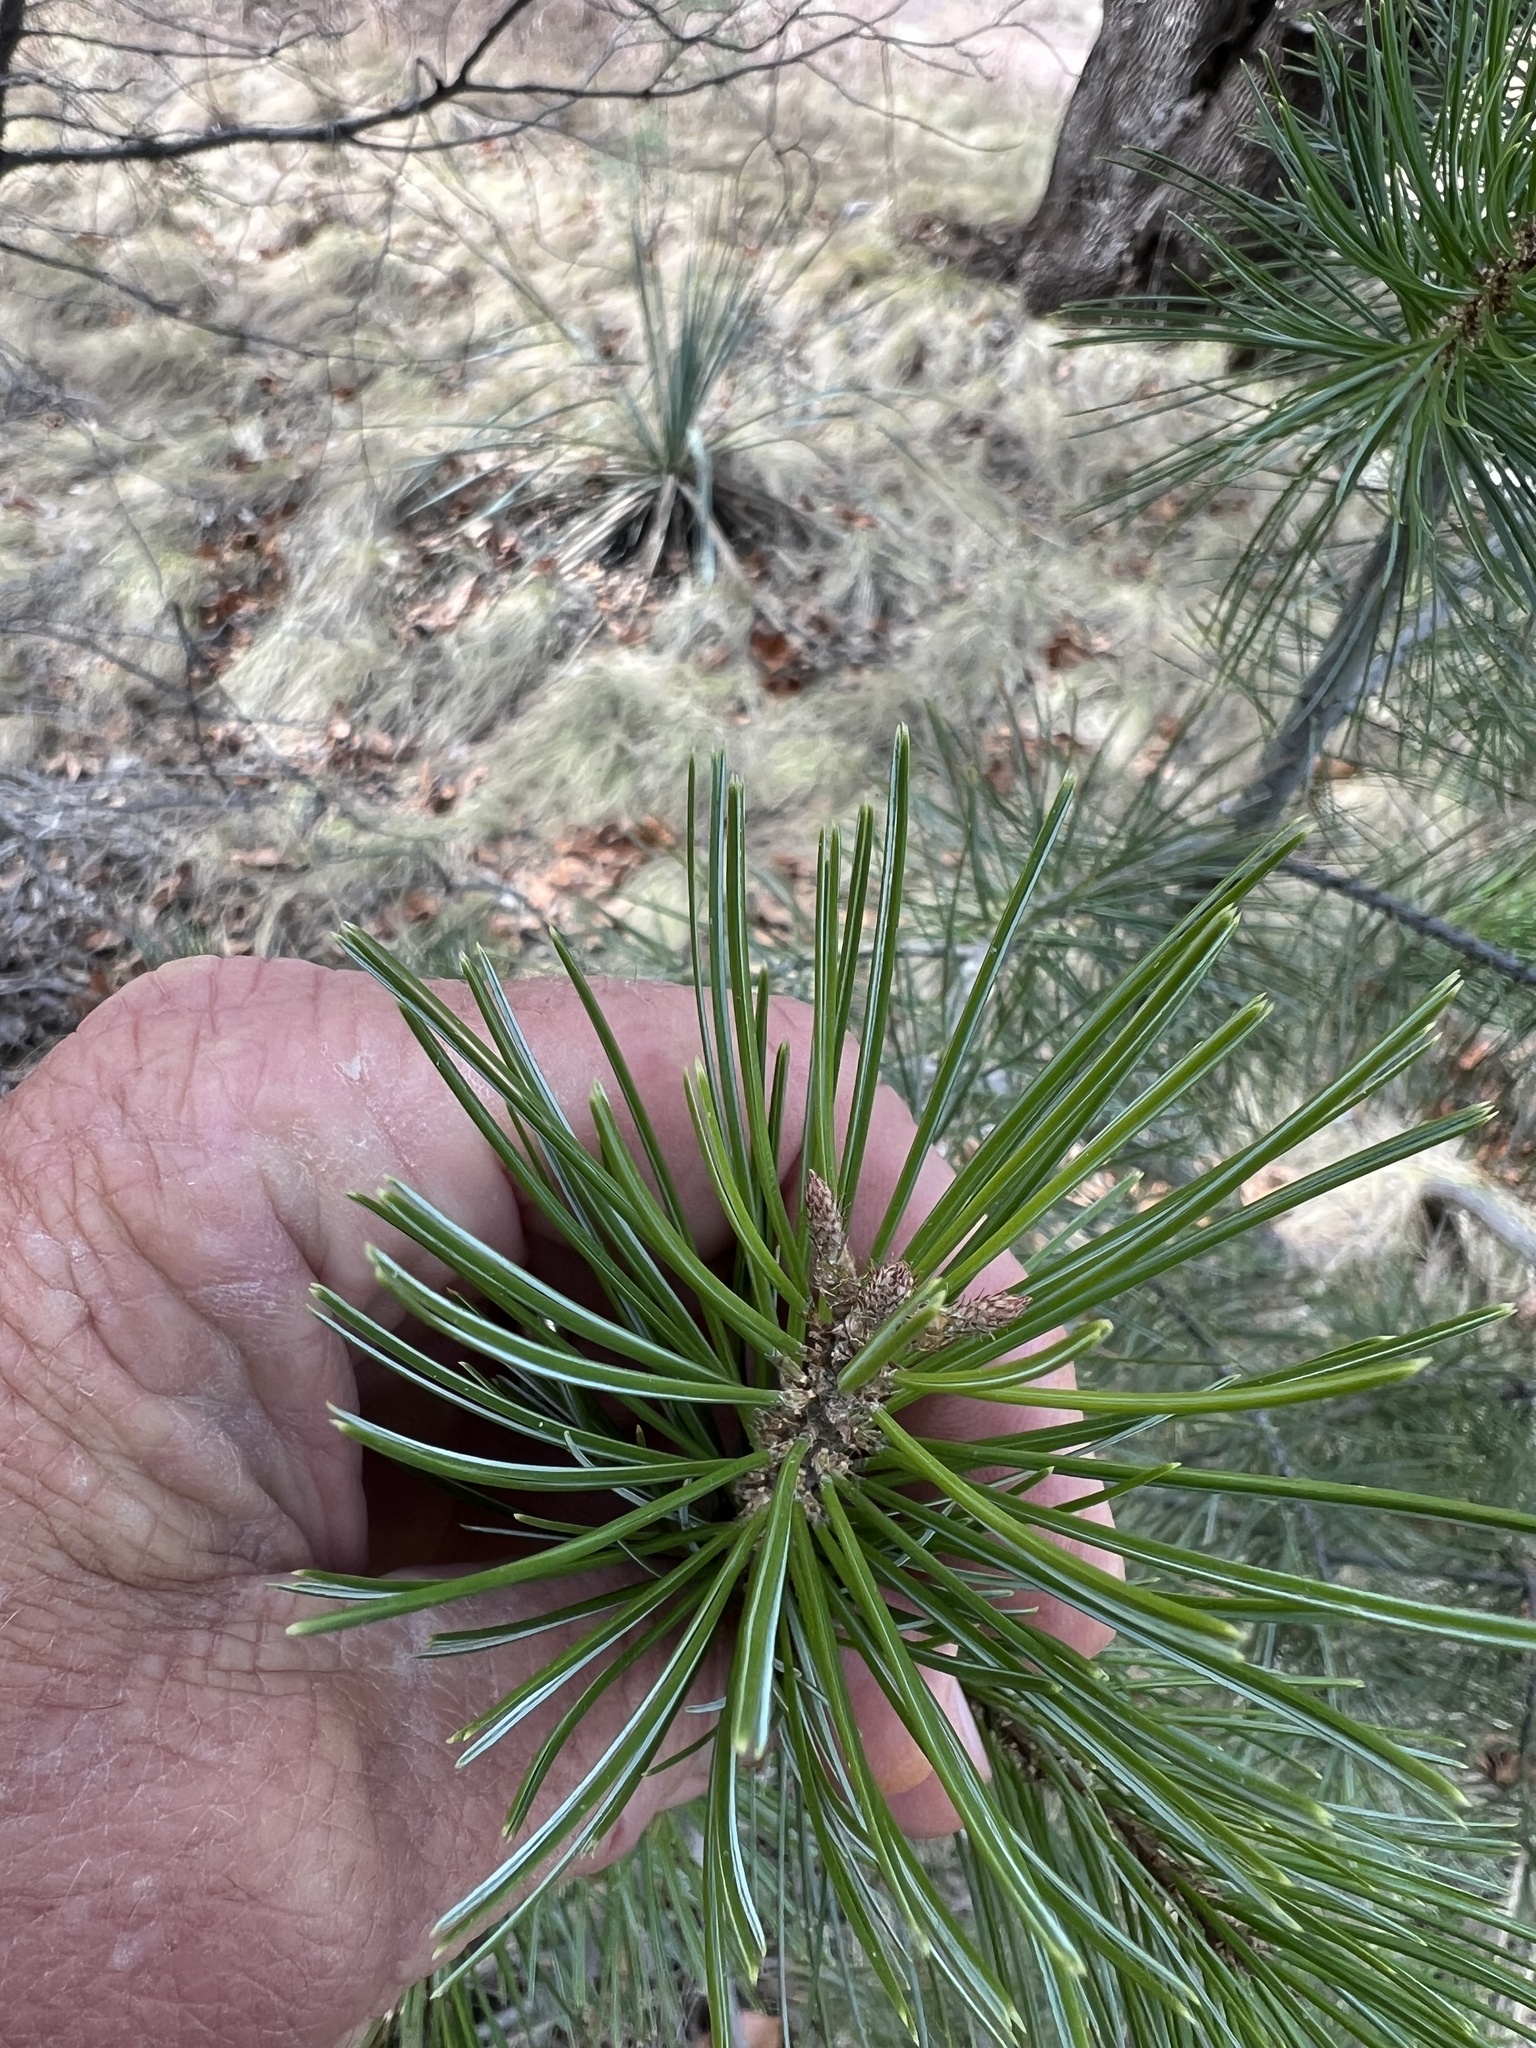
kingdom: Plantae
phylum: Tracheophyta
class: Pinopsida
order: Pinales
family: Pinaceae
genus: Pinus
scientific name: Pinus discolor
